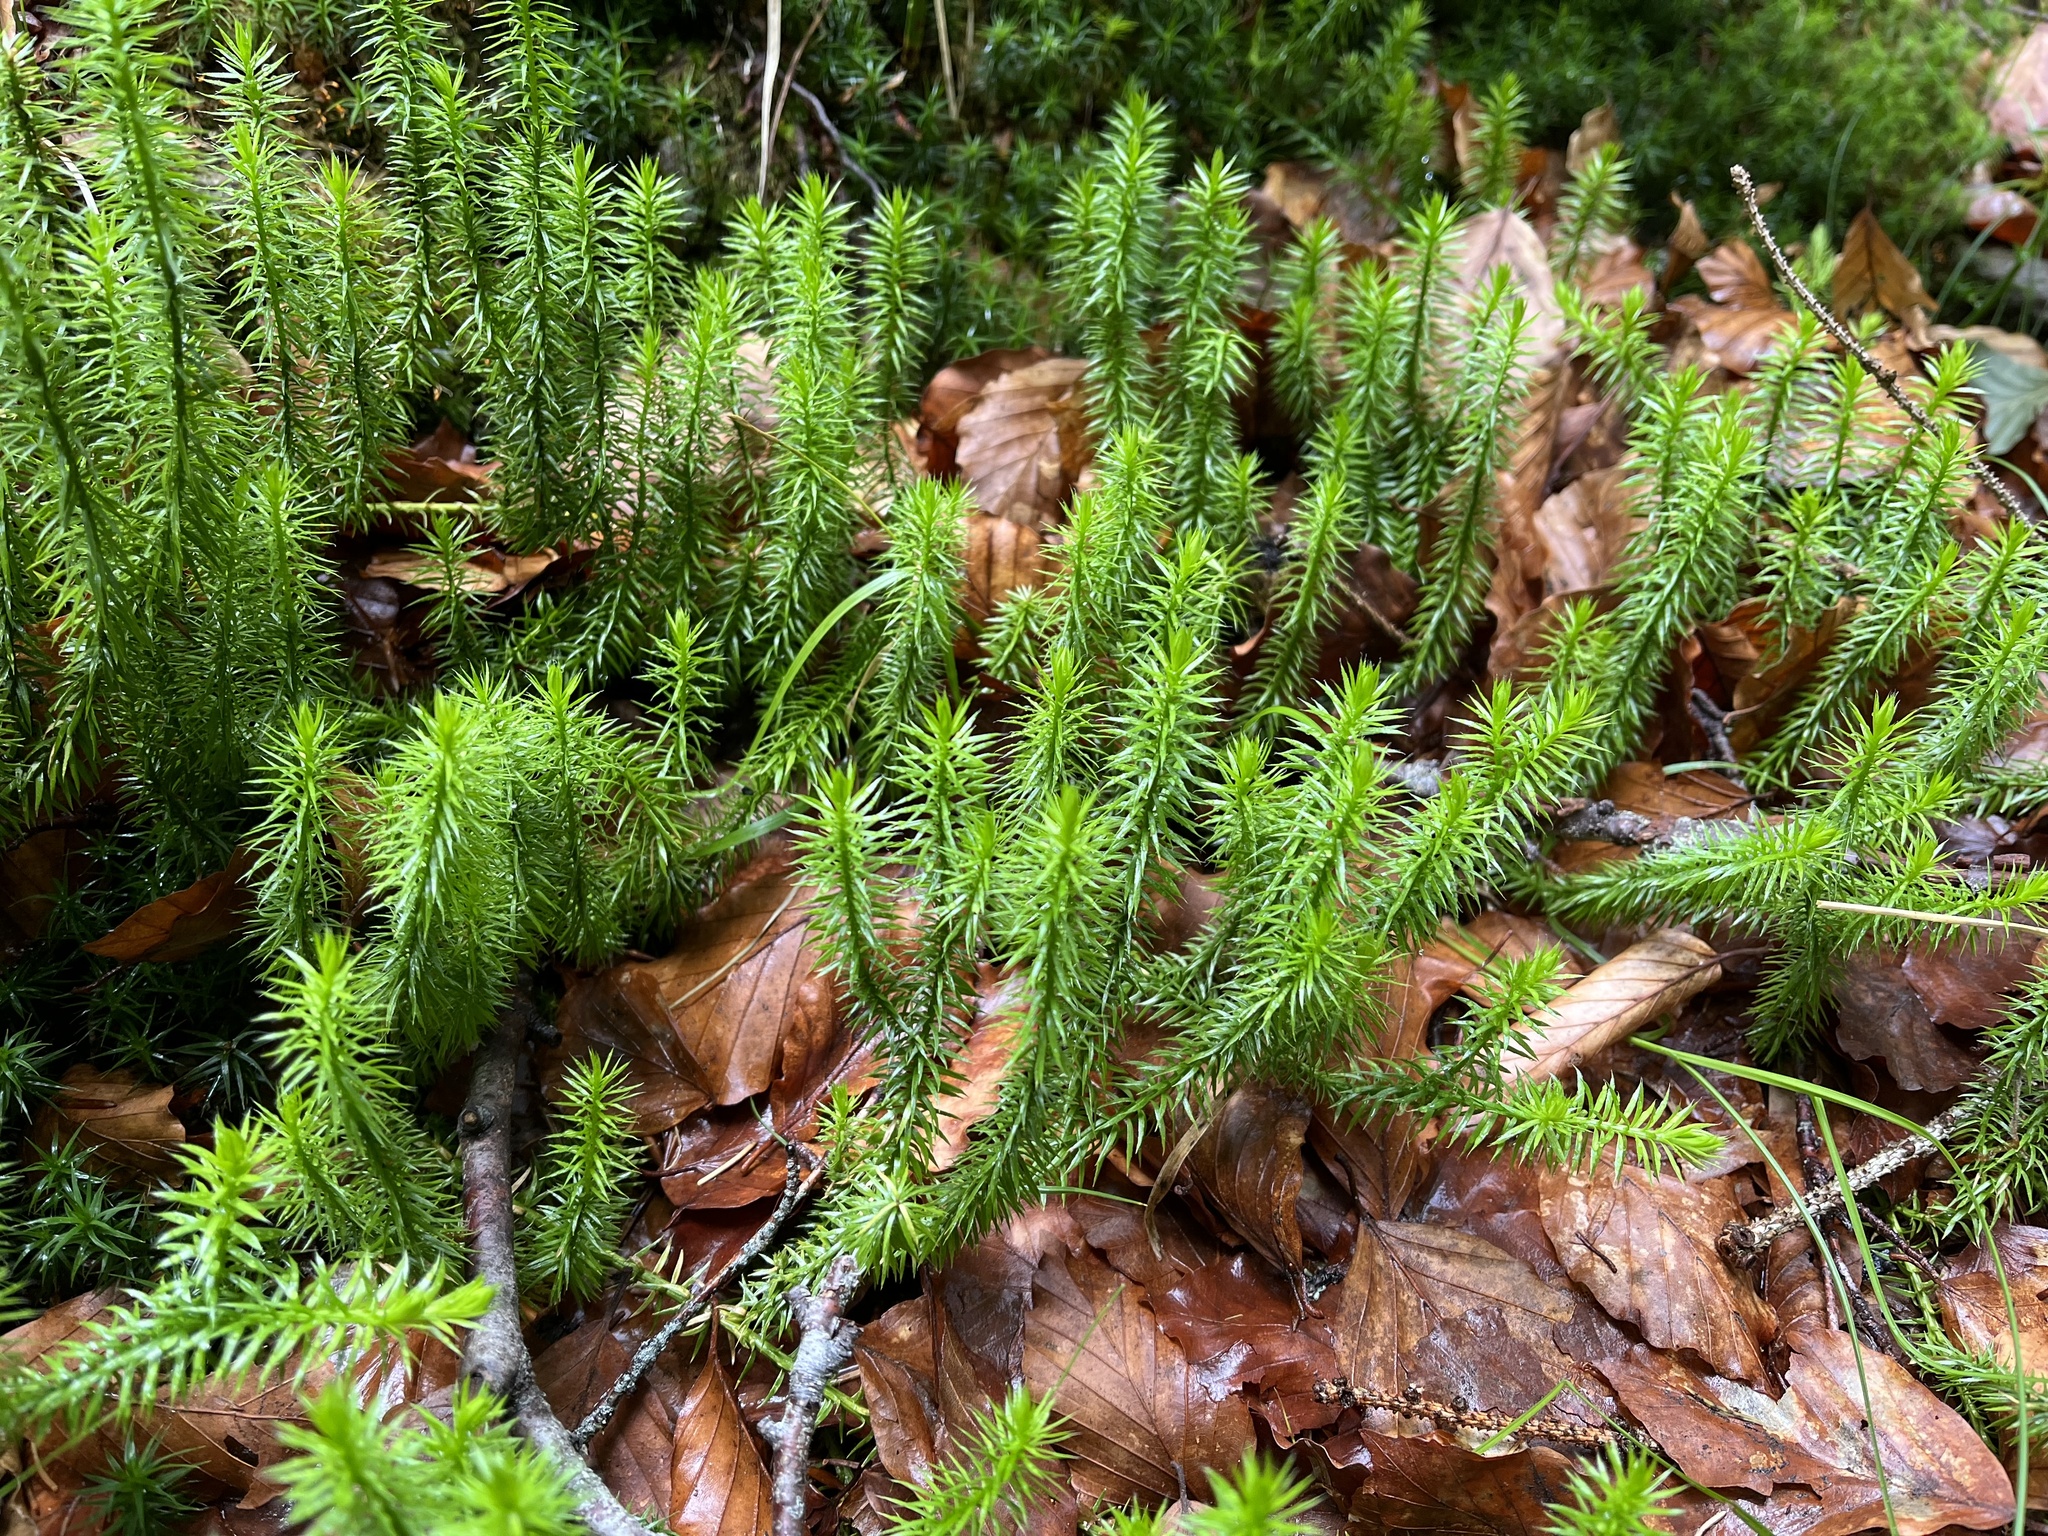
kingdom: Plantae
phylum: Tracheophyta
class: Lycopodiopsida
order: Lycopodiales
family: Lycopodiaceae
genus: Spinulum
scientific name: Spinulum annotinum
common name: Interrupted club-moss
